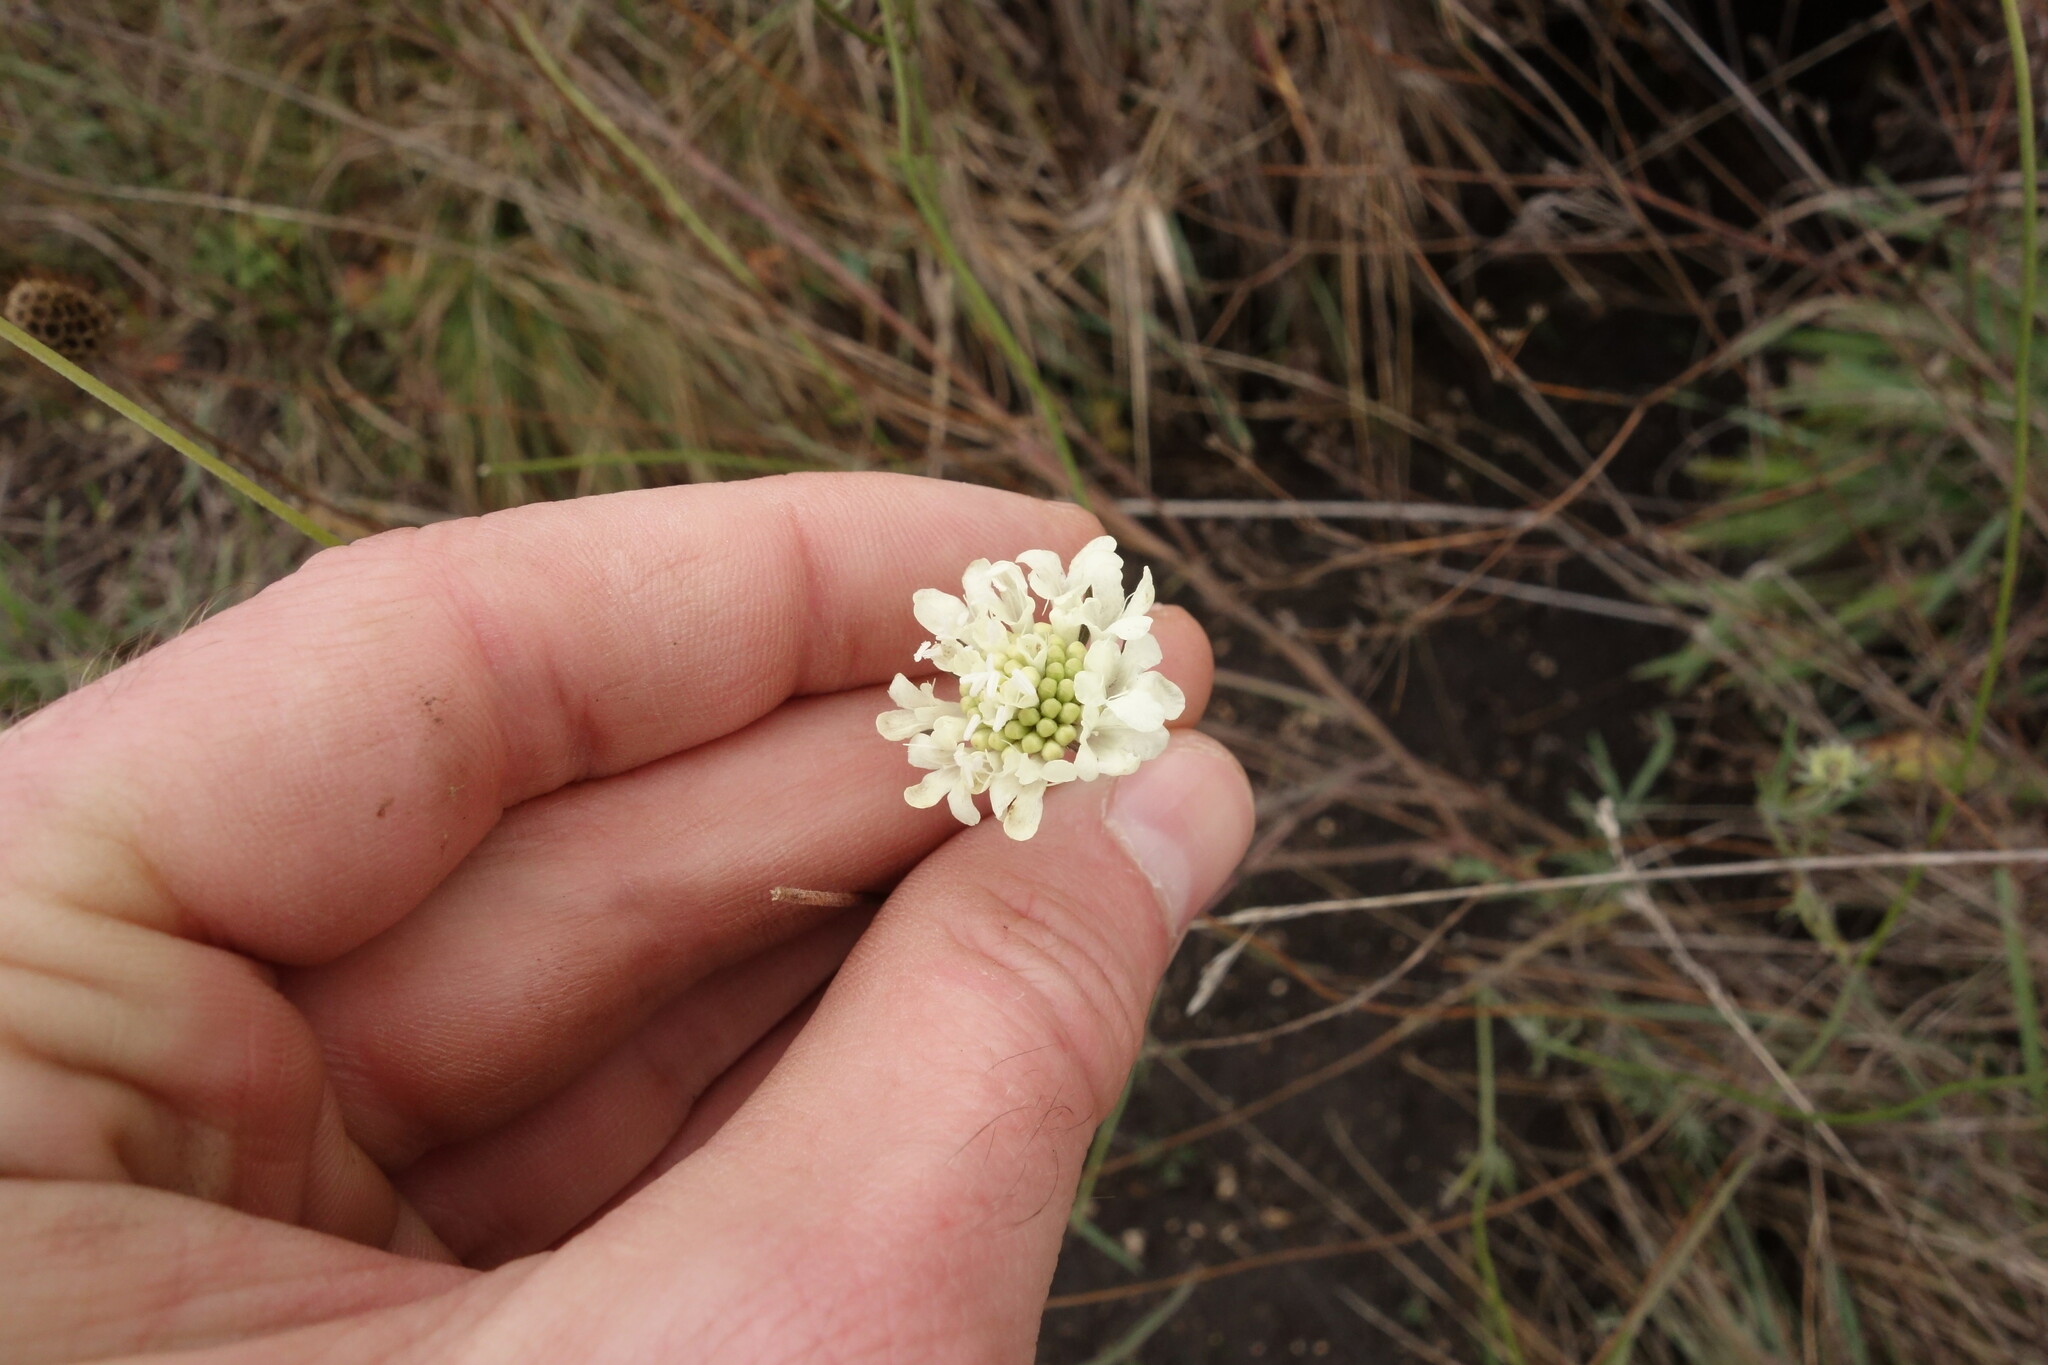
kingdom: Plantae
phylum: Tracheophyta
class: Magnoliopsida
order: Dipsacales
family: Caprifoliaceae
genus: Scabiosa
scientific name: Scabiosa ochroleuca
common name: Cream pincushions
